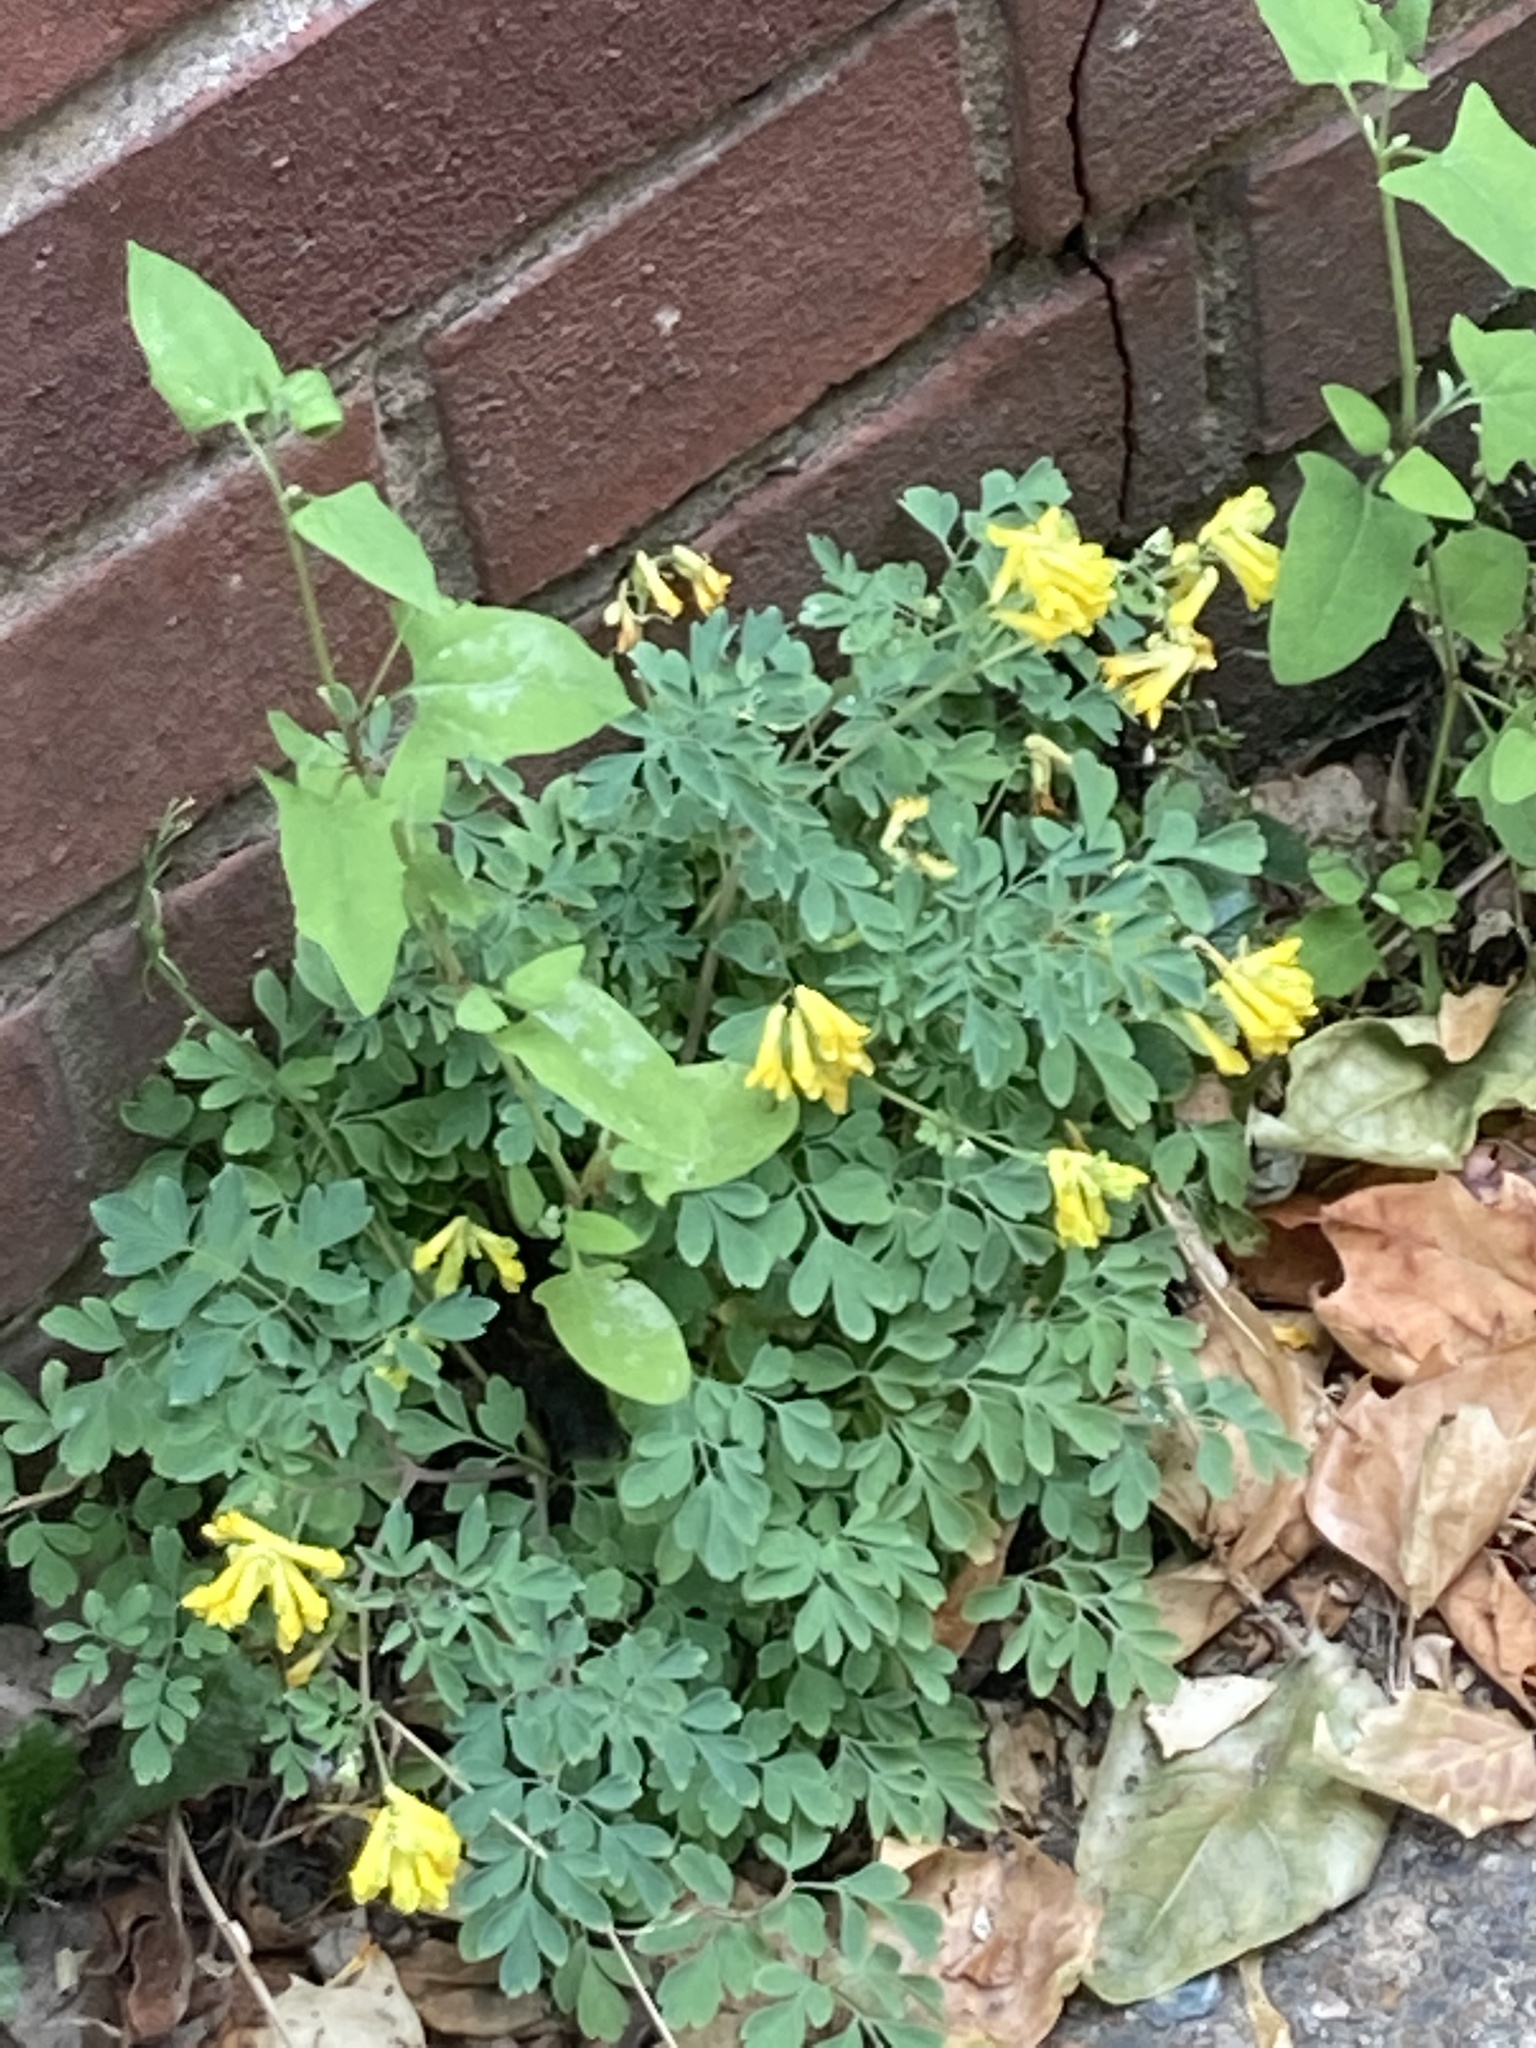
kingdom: Plantae
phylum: Tracheophyta
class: Magnoliopsida
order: Ranunculales
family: Papaveraceae
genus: Pseudofumaria
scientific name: Pseudofumaria lutea
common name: Yellow corydalis
